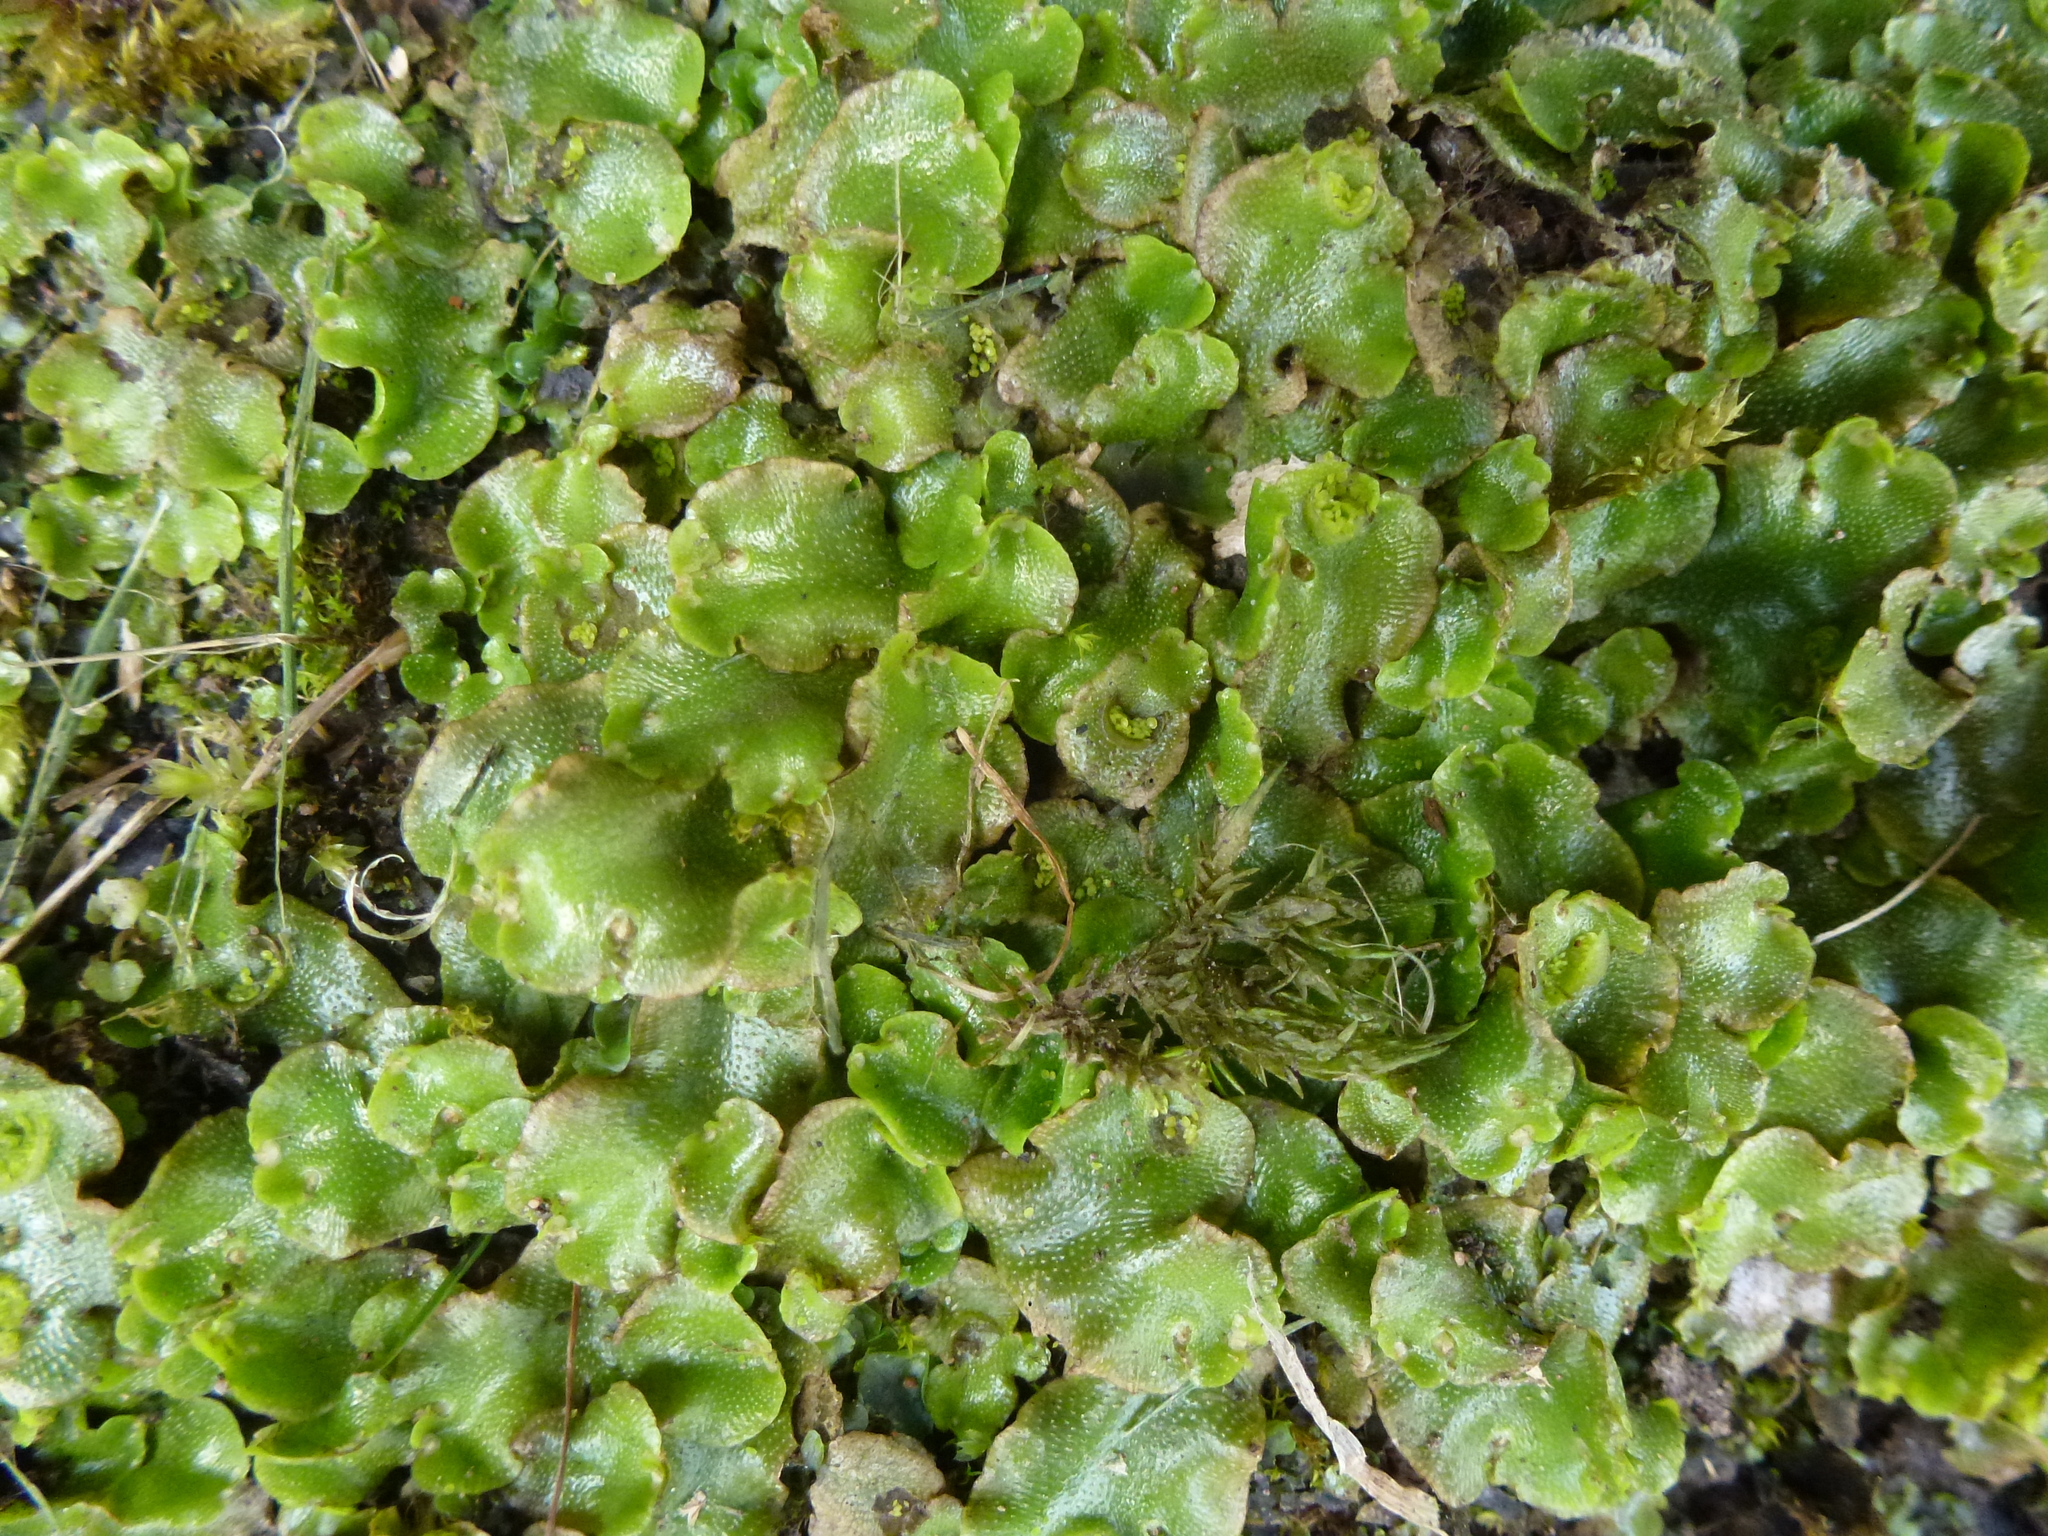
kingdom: Plantae
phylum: Marchantiophyta
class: Marchantiopsida
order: Lunulariales
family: Lunulariaceae
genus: Lunularia
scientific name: Lunularia cruciata
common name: Crescent-cup liverwort
